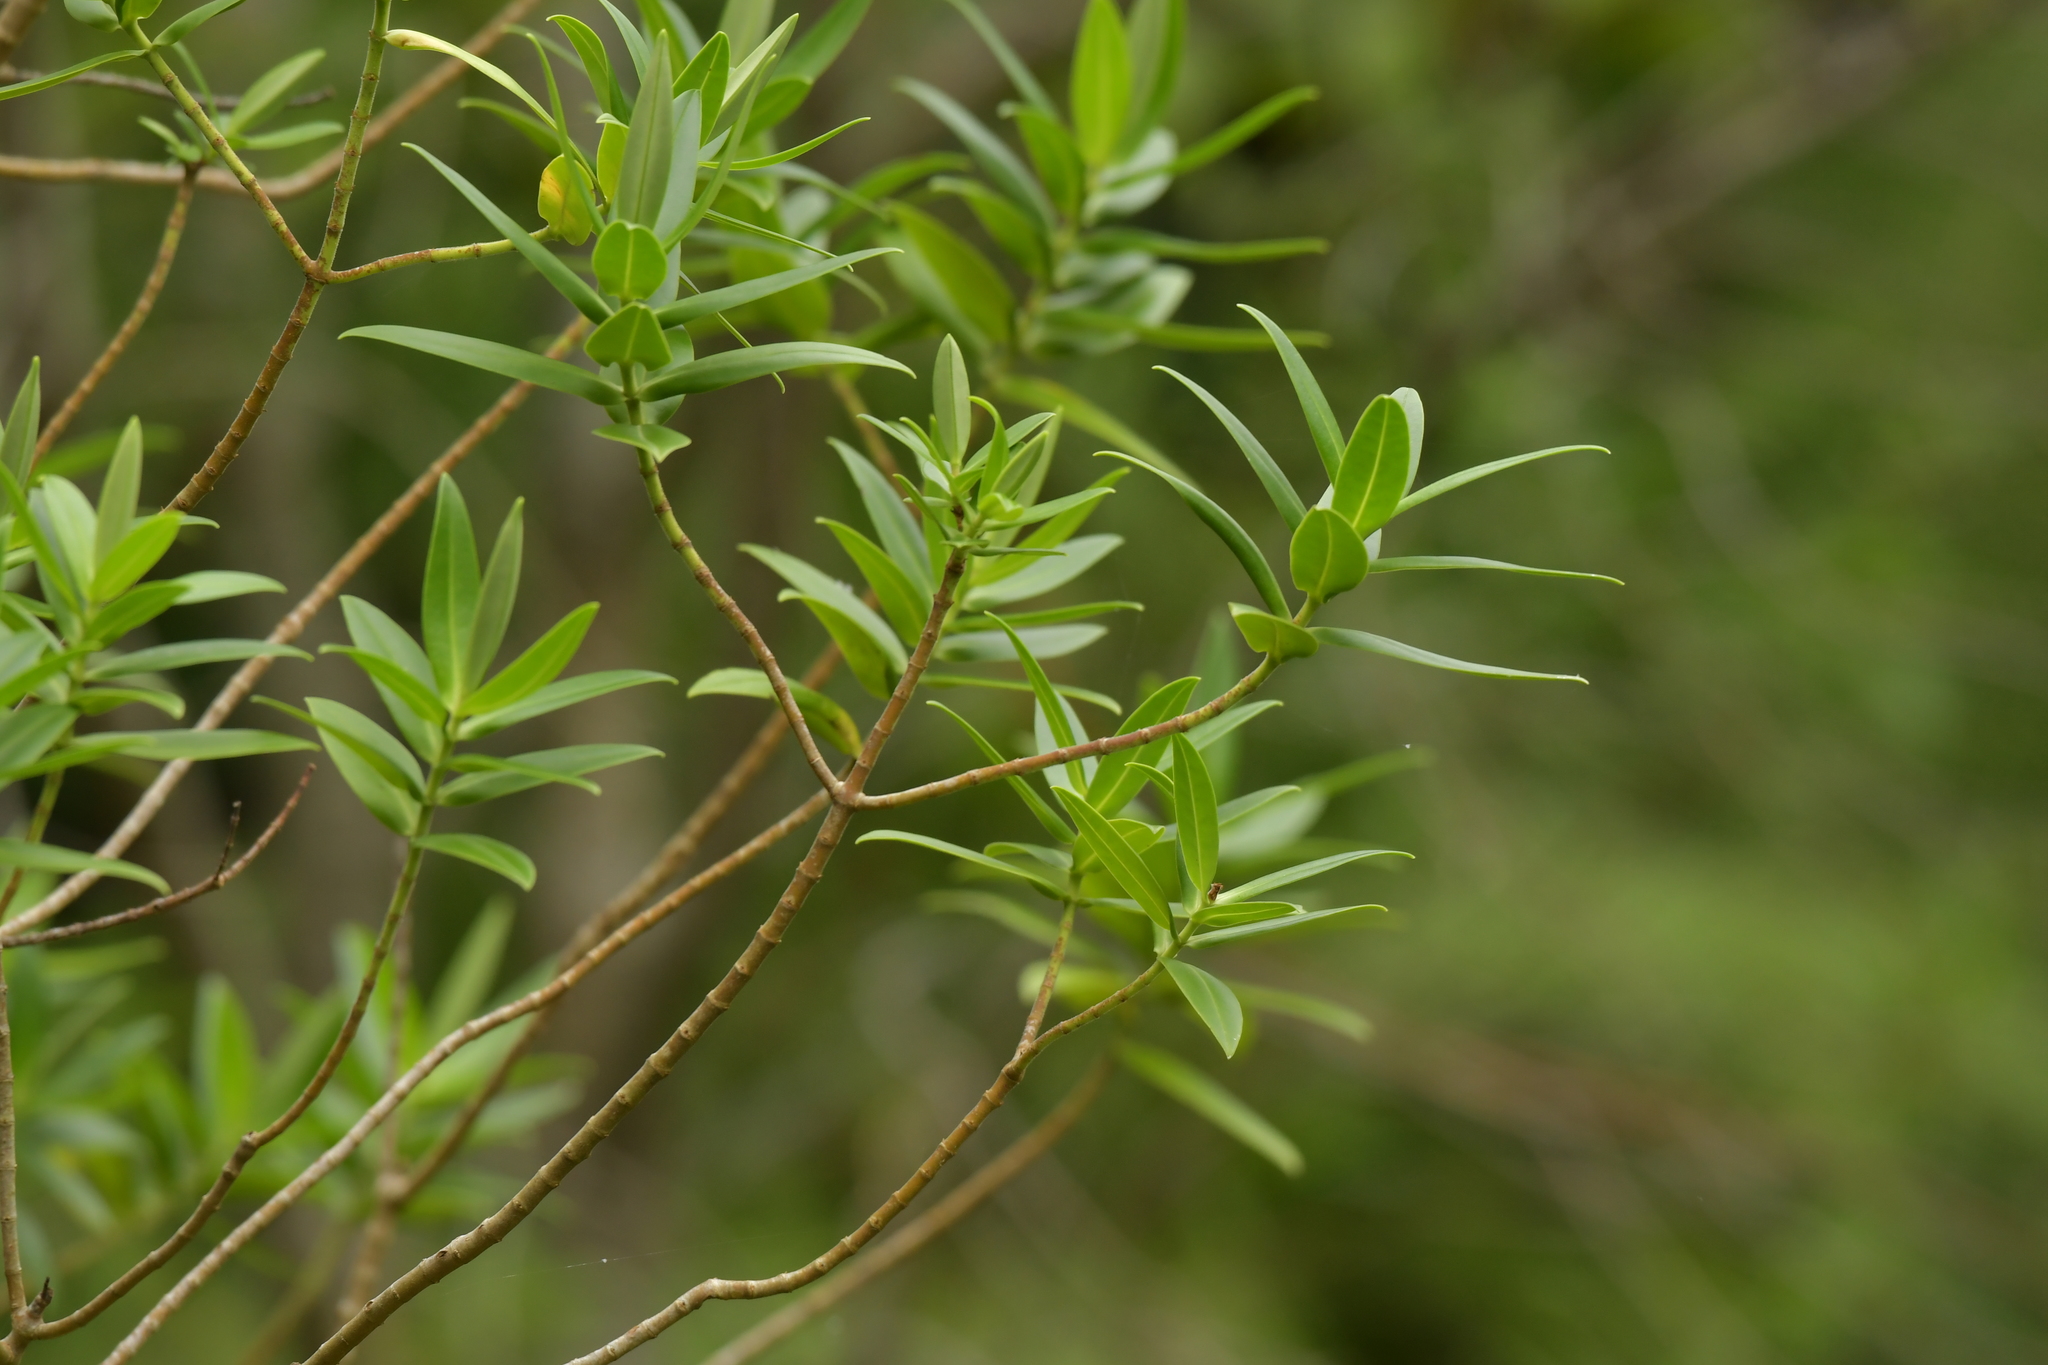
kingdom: Plantae
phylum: Tracheophyta
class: Magnoliopsida
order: Lamiales
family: Plantaginaceae
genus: Veronica
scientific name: Veronica barkeri
